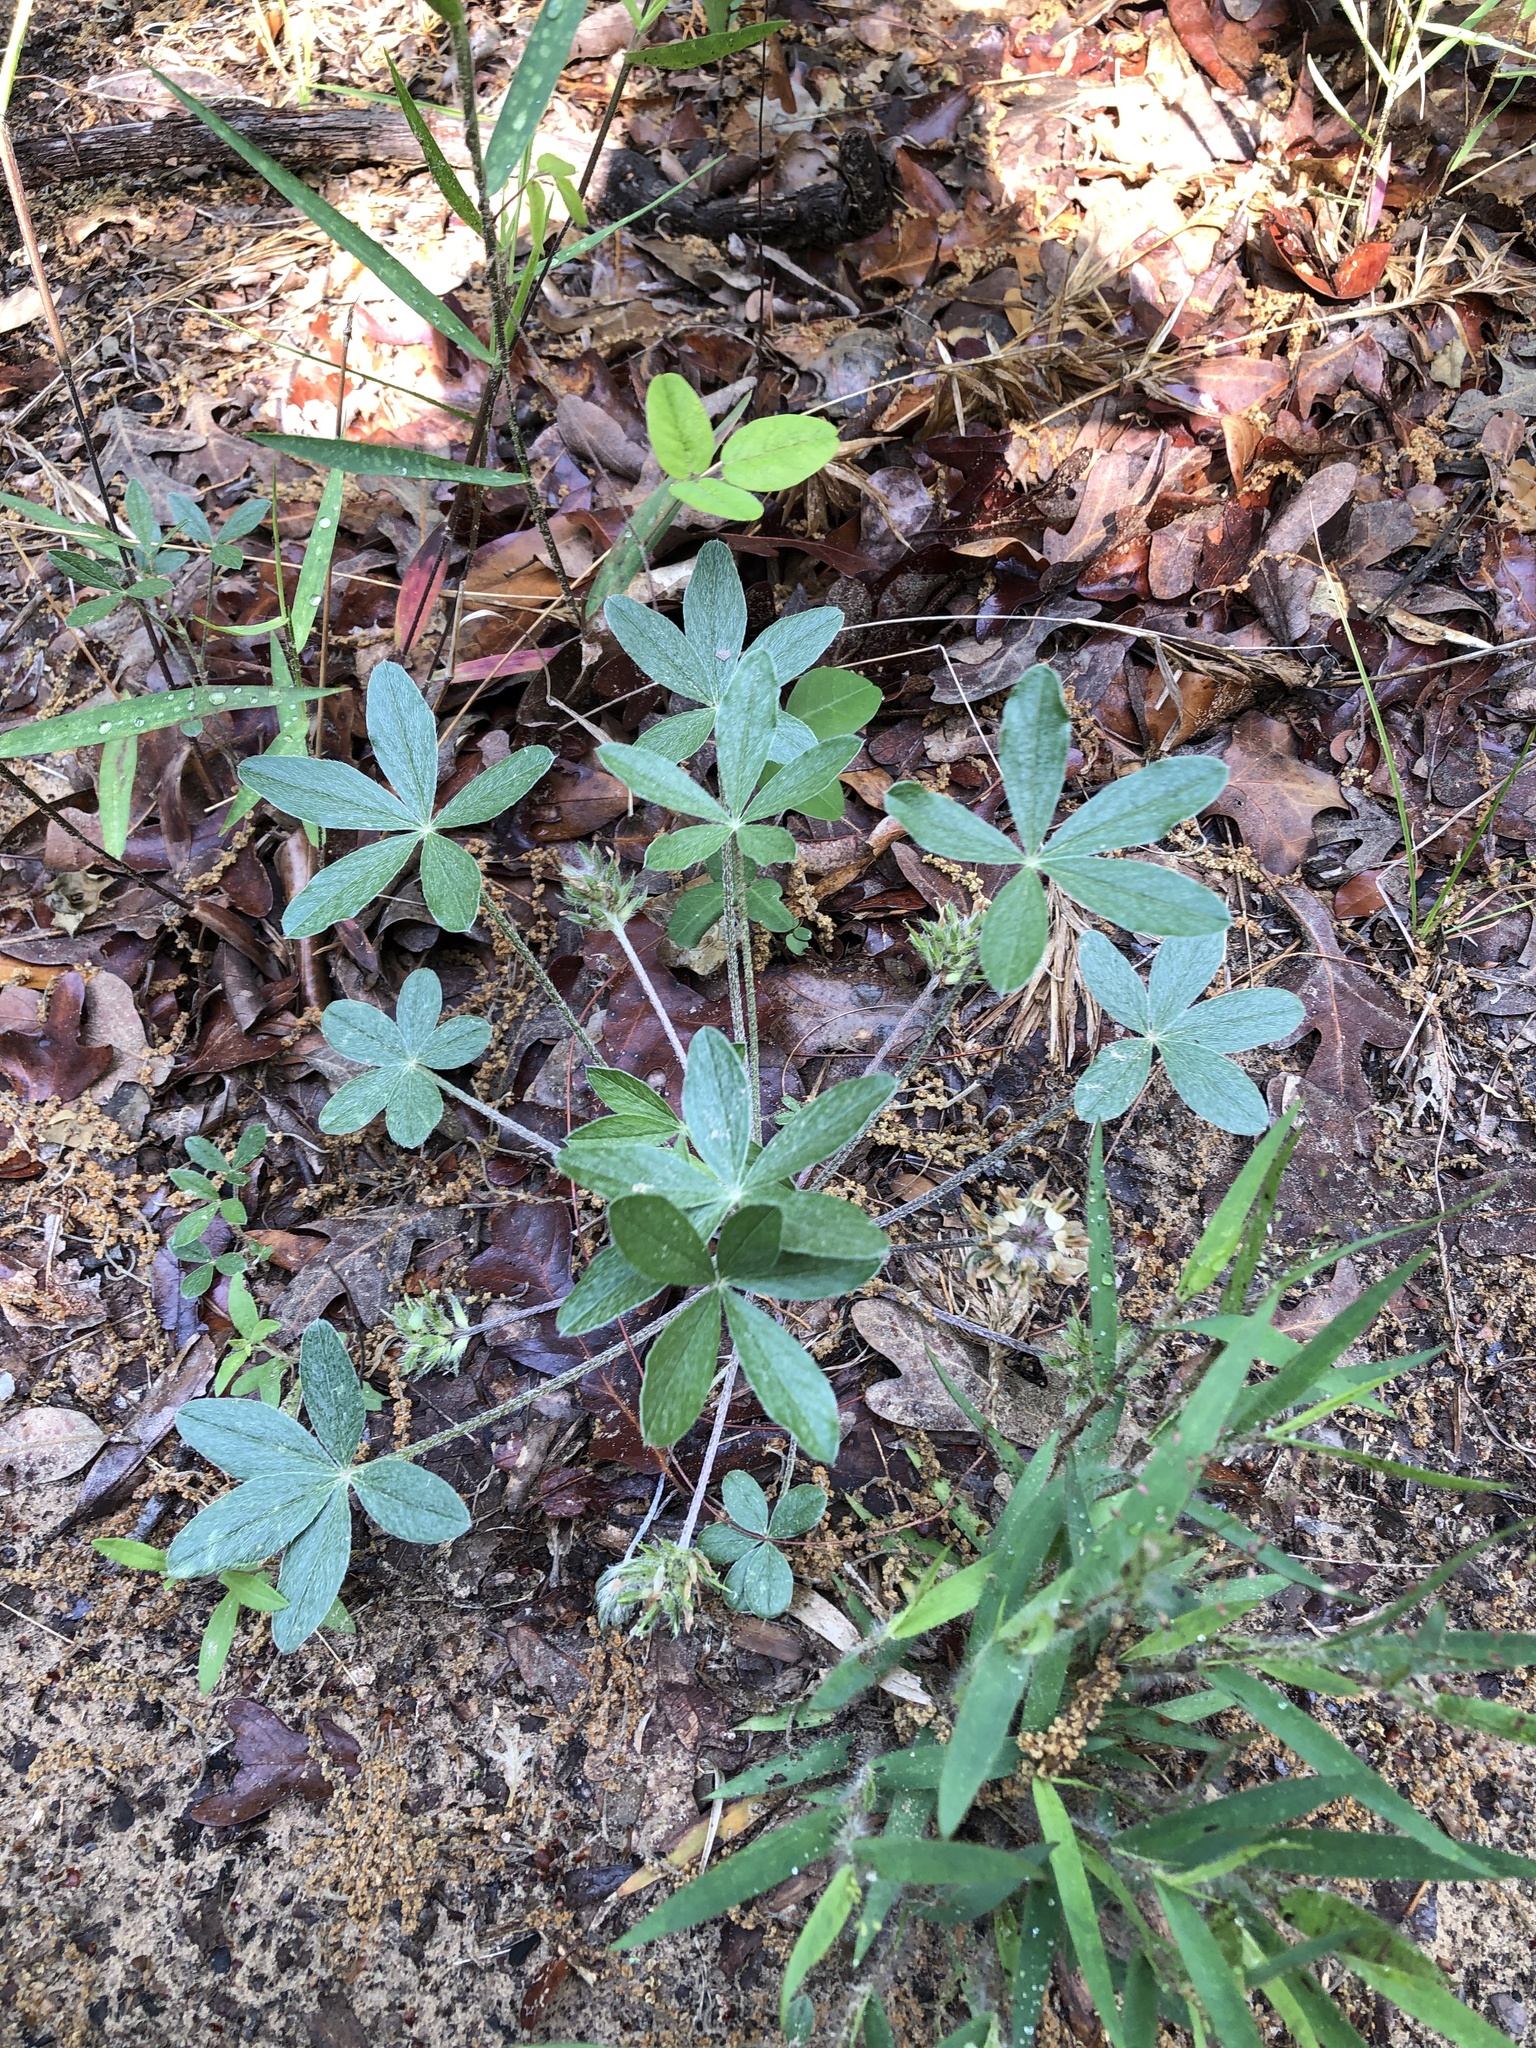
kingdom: Plantae
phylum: Tracheophyta
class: Magnoliopsida
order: Fabales
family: Fabaceae
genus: Pediomelum
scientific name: Pediomelum hypogaeum
